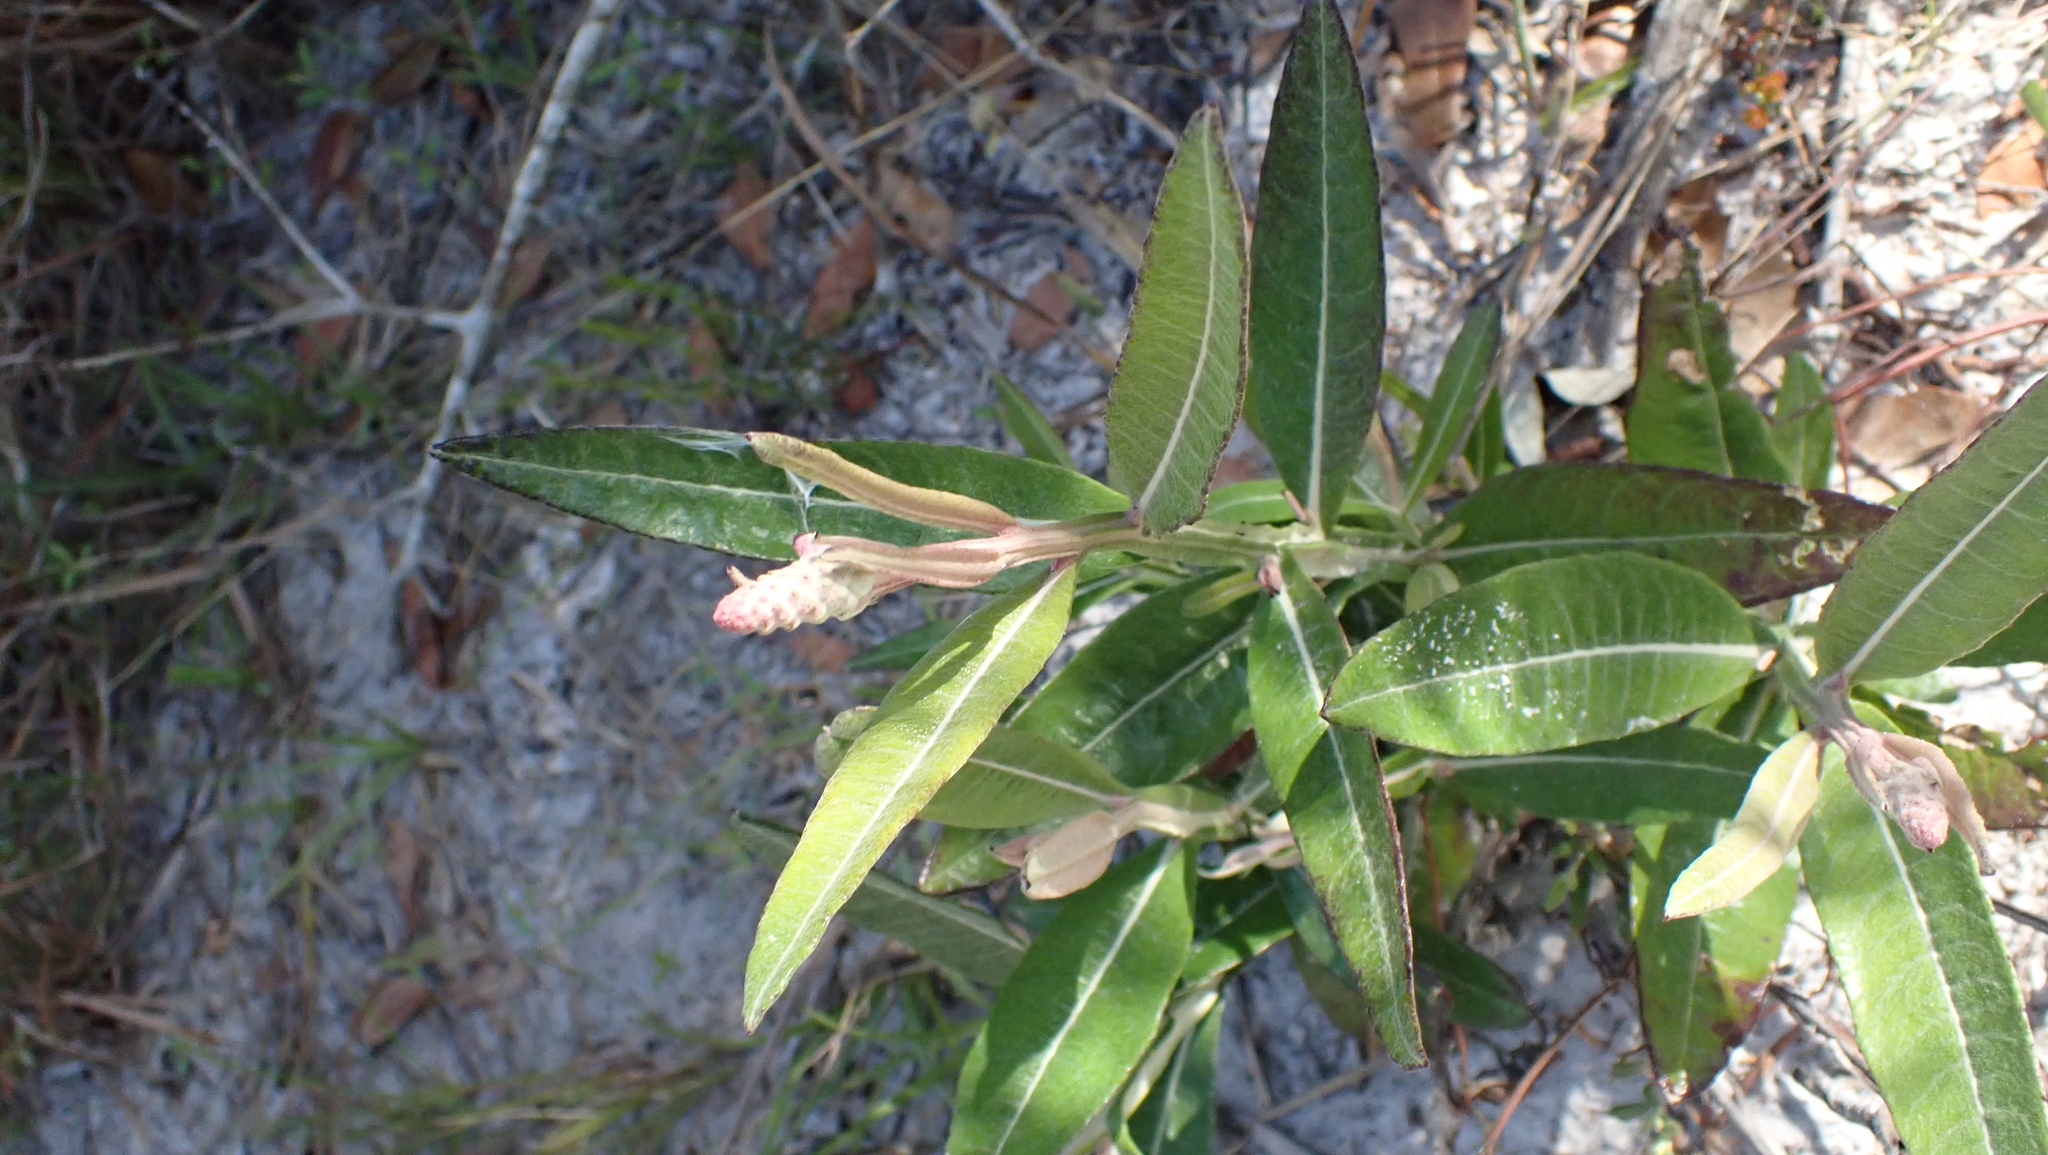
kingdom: Plantae
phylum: Tracheophyta
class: Magnoliopsida
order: Asterales
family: Asteraceae
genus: Pterocaulon
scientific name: Pterocaulon pycnostachyum
